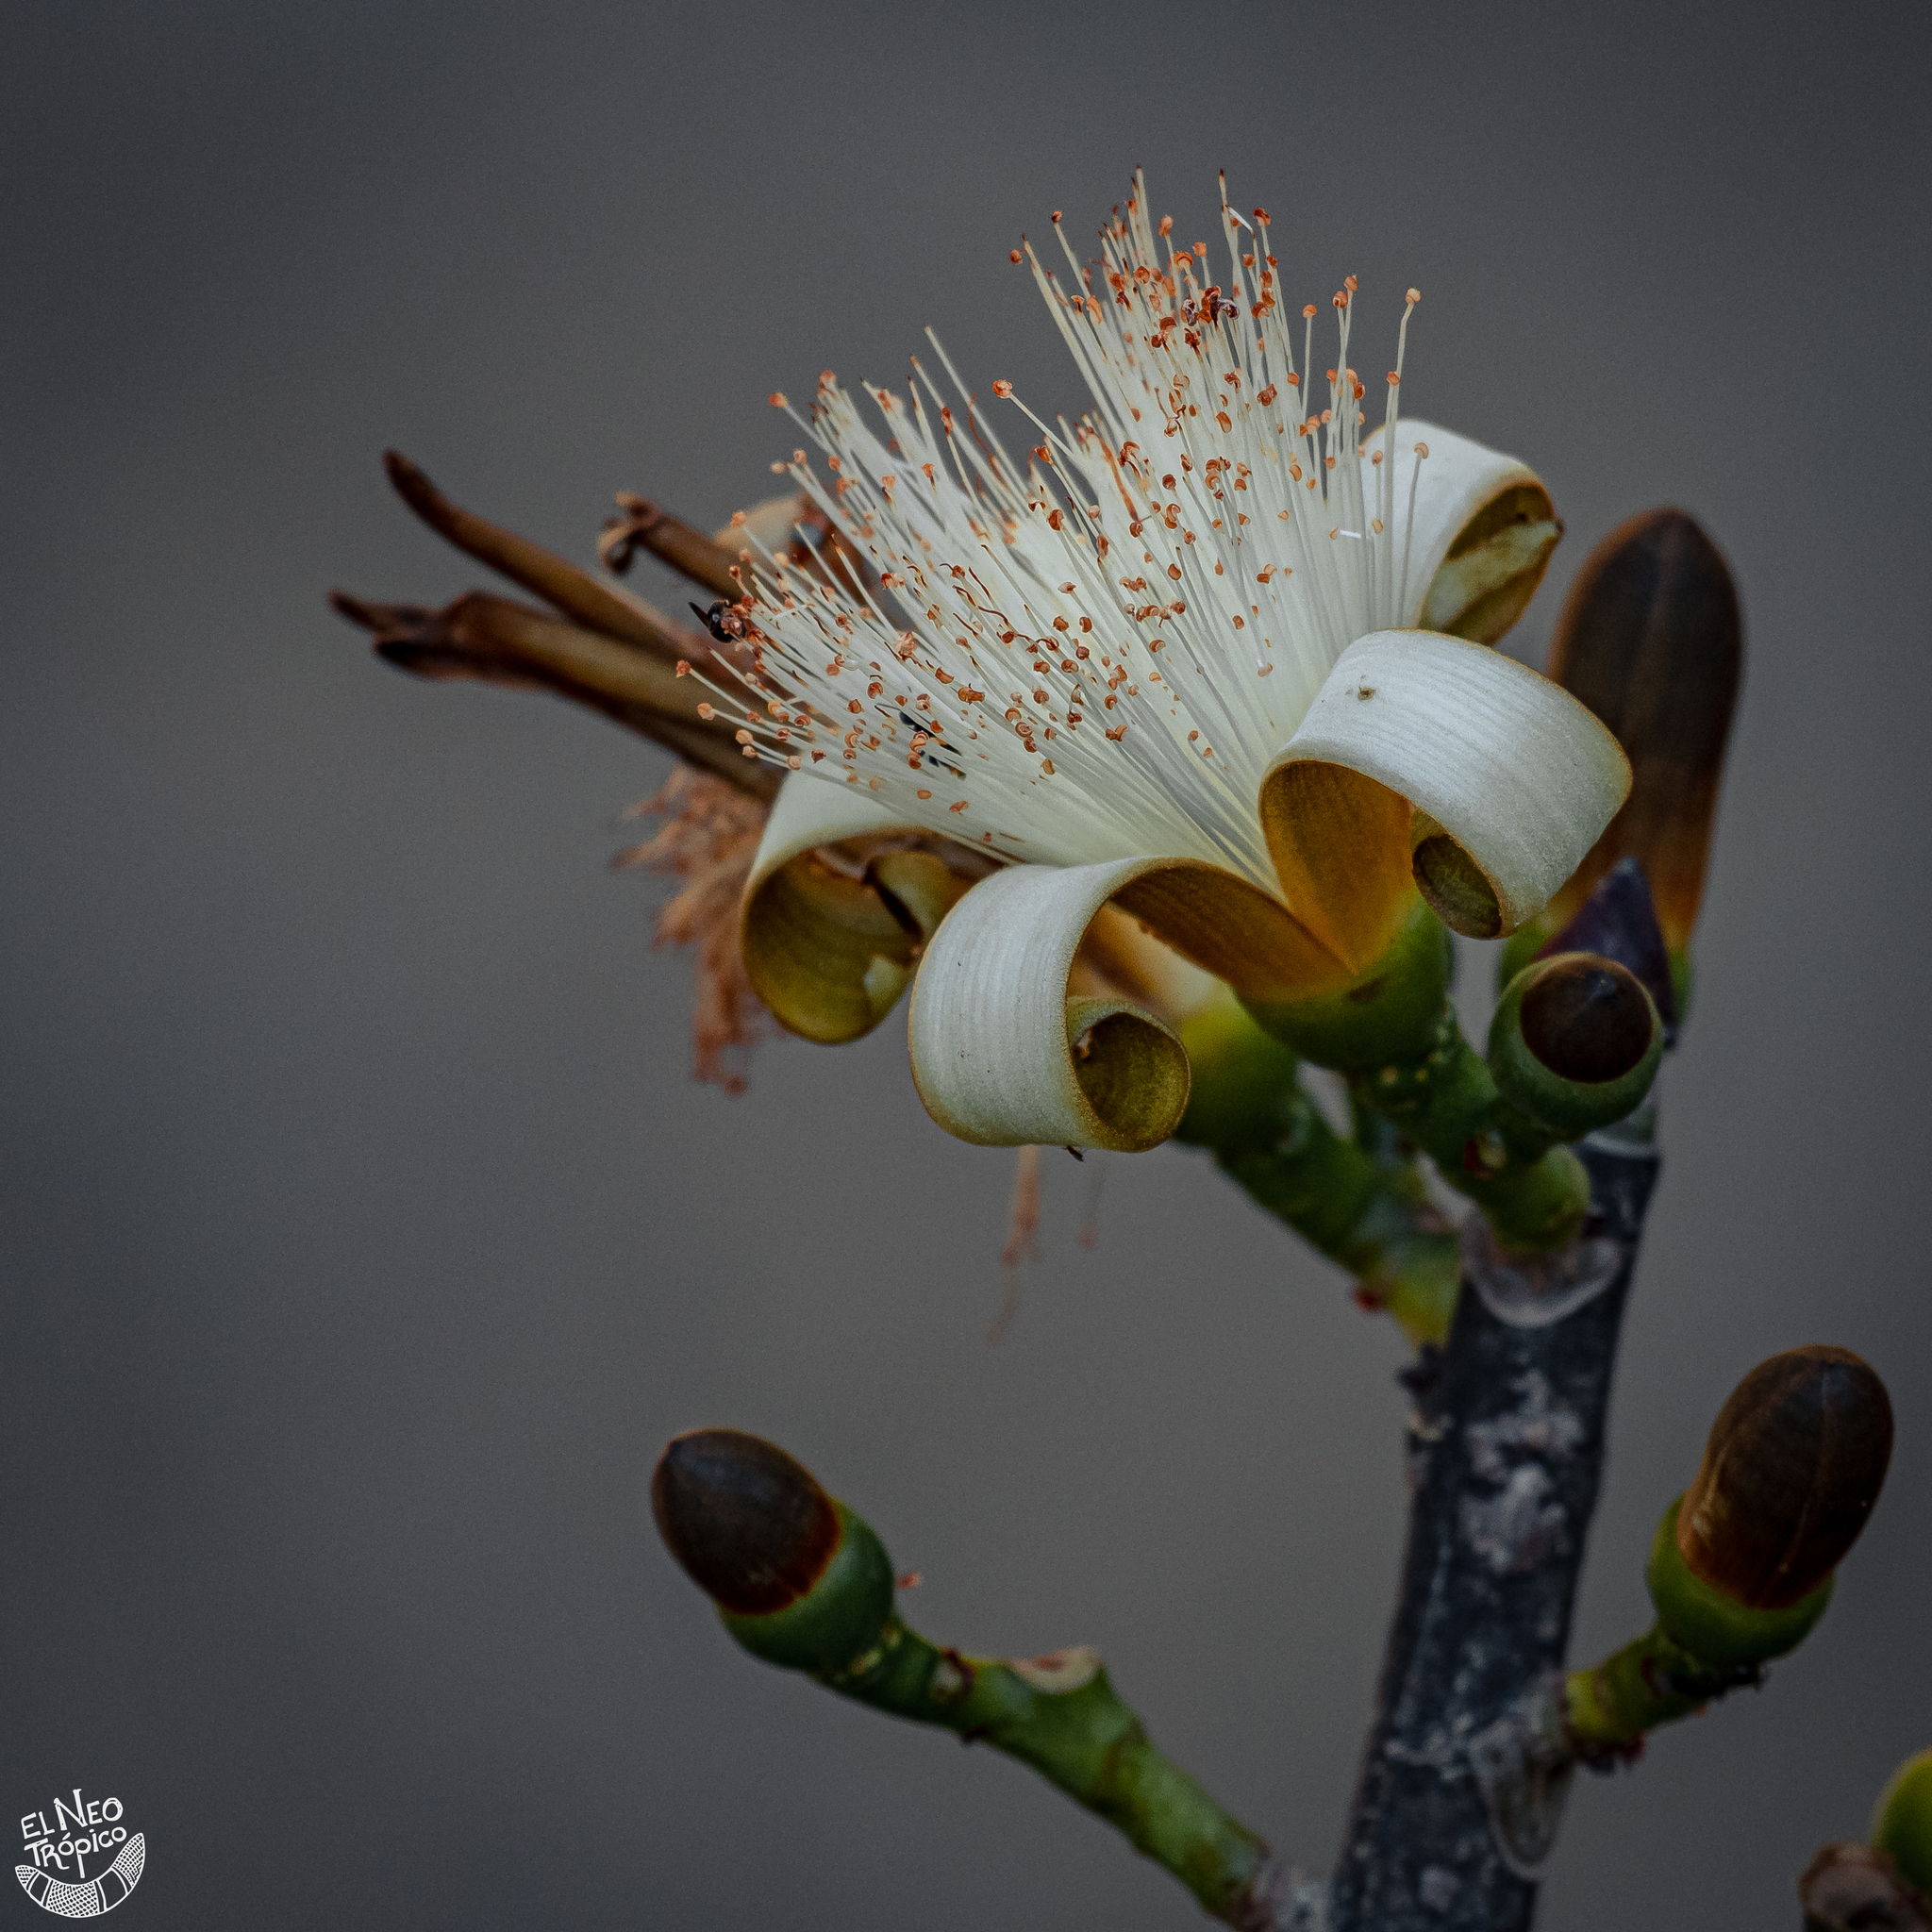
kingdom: Plantae
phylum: Tracheophyta
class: Magnoliopsida
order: Malvales
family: Malvaceae
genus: Pseudobombax
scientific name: Pseudobombax ellipticum
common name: Shaving-brush-tree
